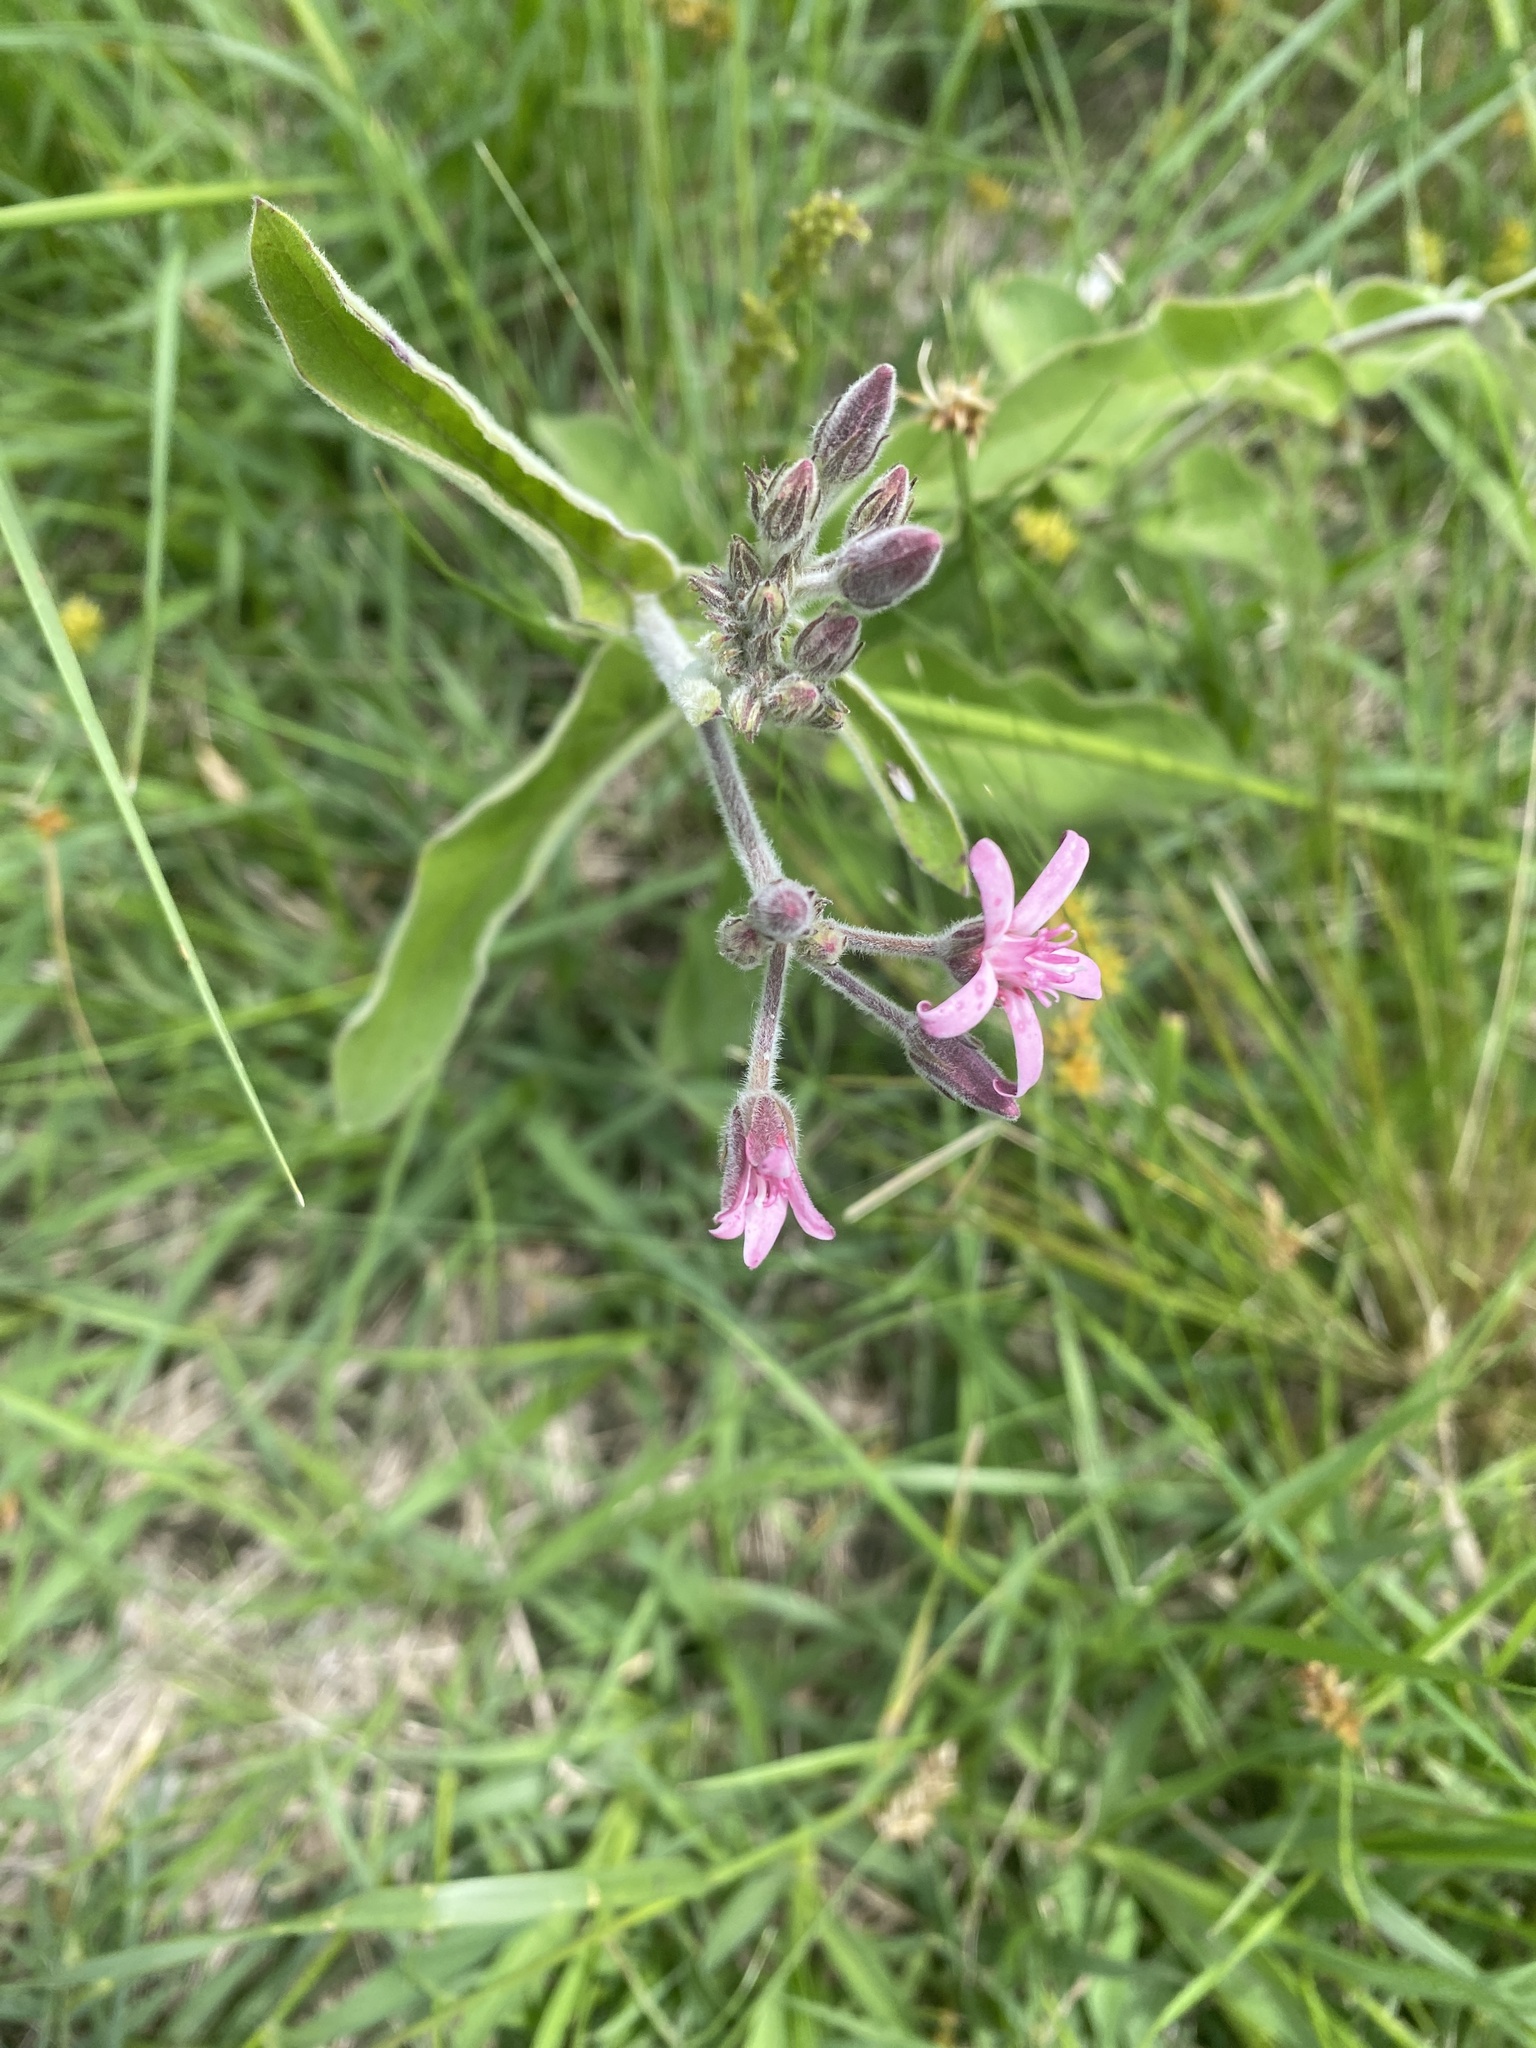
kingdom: Plantae
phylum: Tracheophyta
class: Magnoliopsida
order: Gentianales
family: Apocynaceae
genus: Oxypetalum
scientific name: Oxypetalum solanoides
